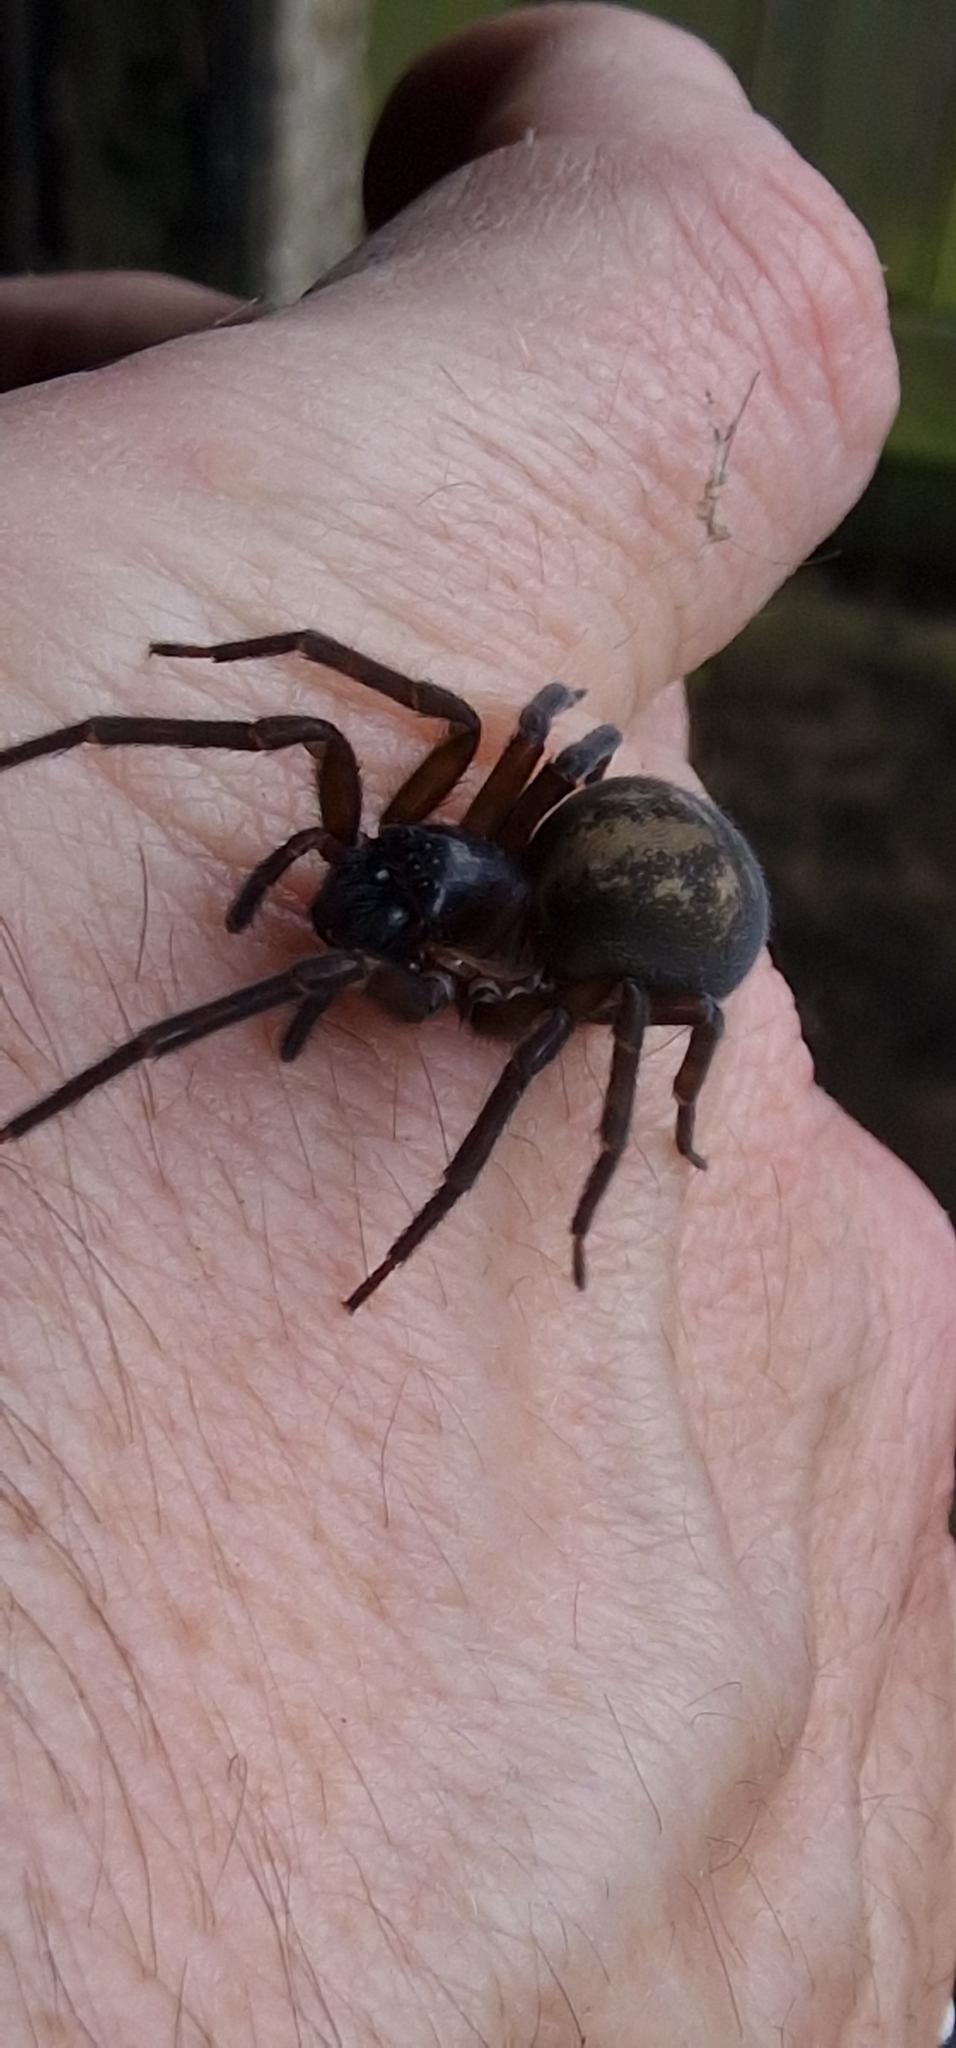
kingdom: Animalia
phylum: Arthropoda
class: Arachnida
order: Araneae
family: Amaurobiidae
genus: Amaurobius
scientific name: Amaurobius ferox
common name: Black laceweaver
